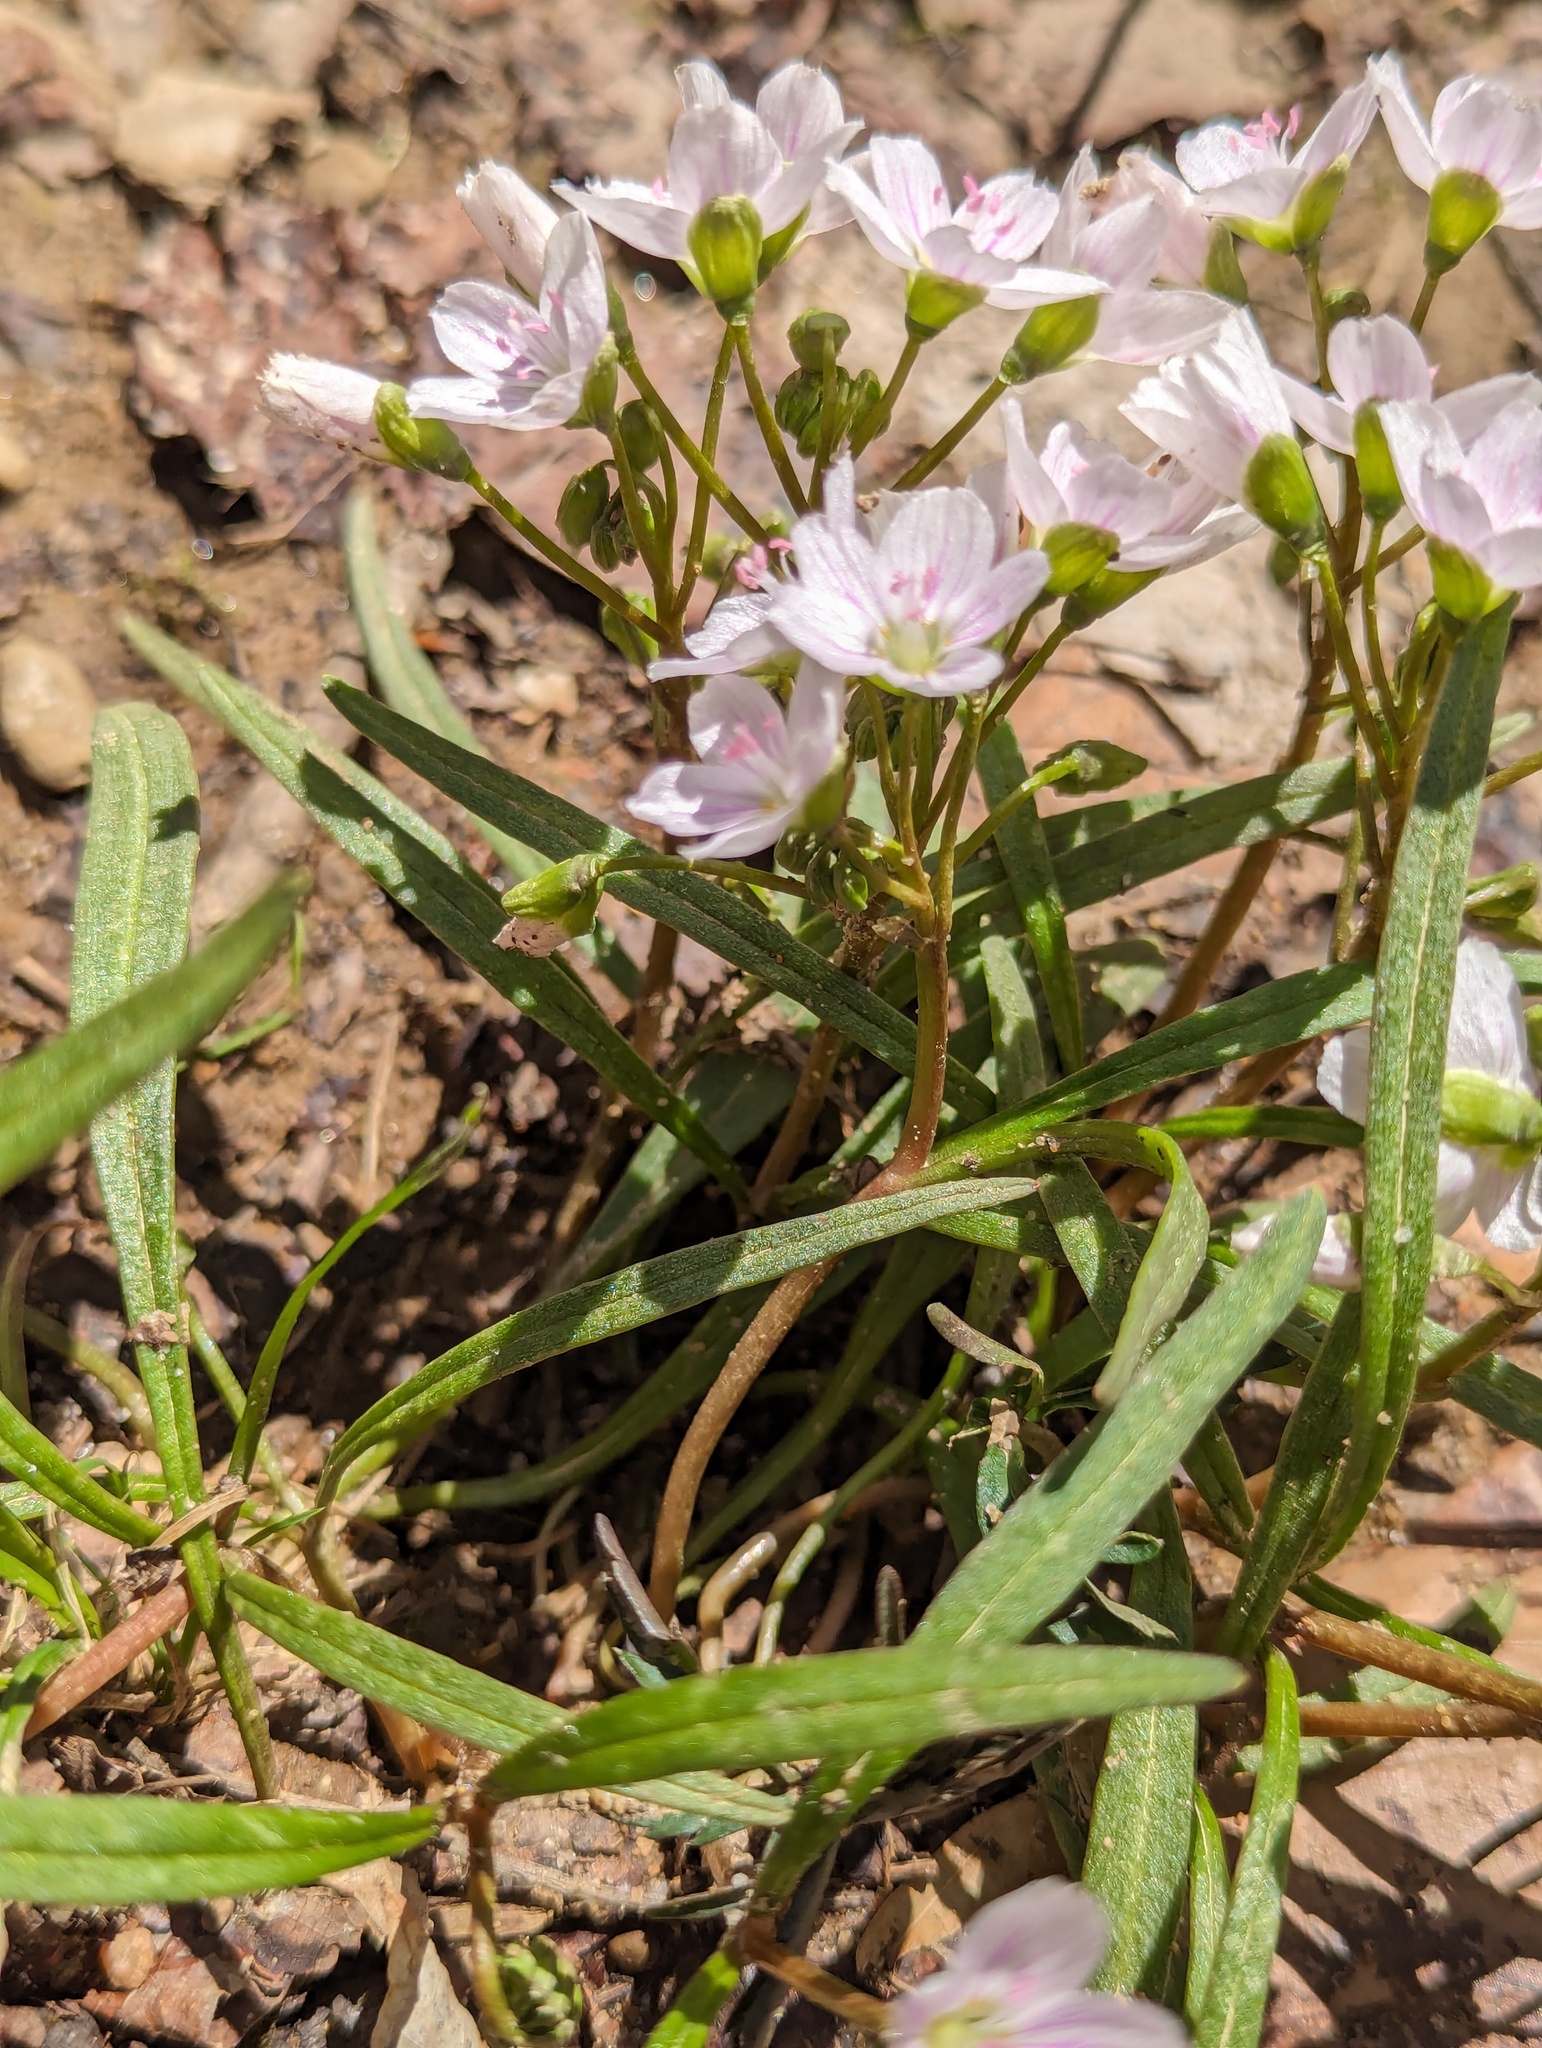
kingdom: Plantae
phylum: Tracheophyta
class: Magnoliopsida
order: Caryophyllales
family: Montiaceae
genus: Claytonia
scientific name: Claytonia virginica
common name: Virginia springbeauty
